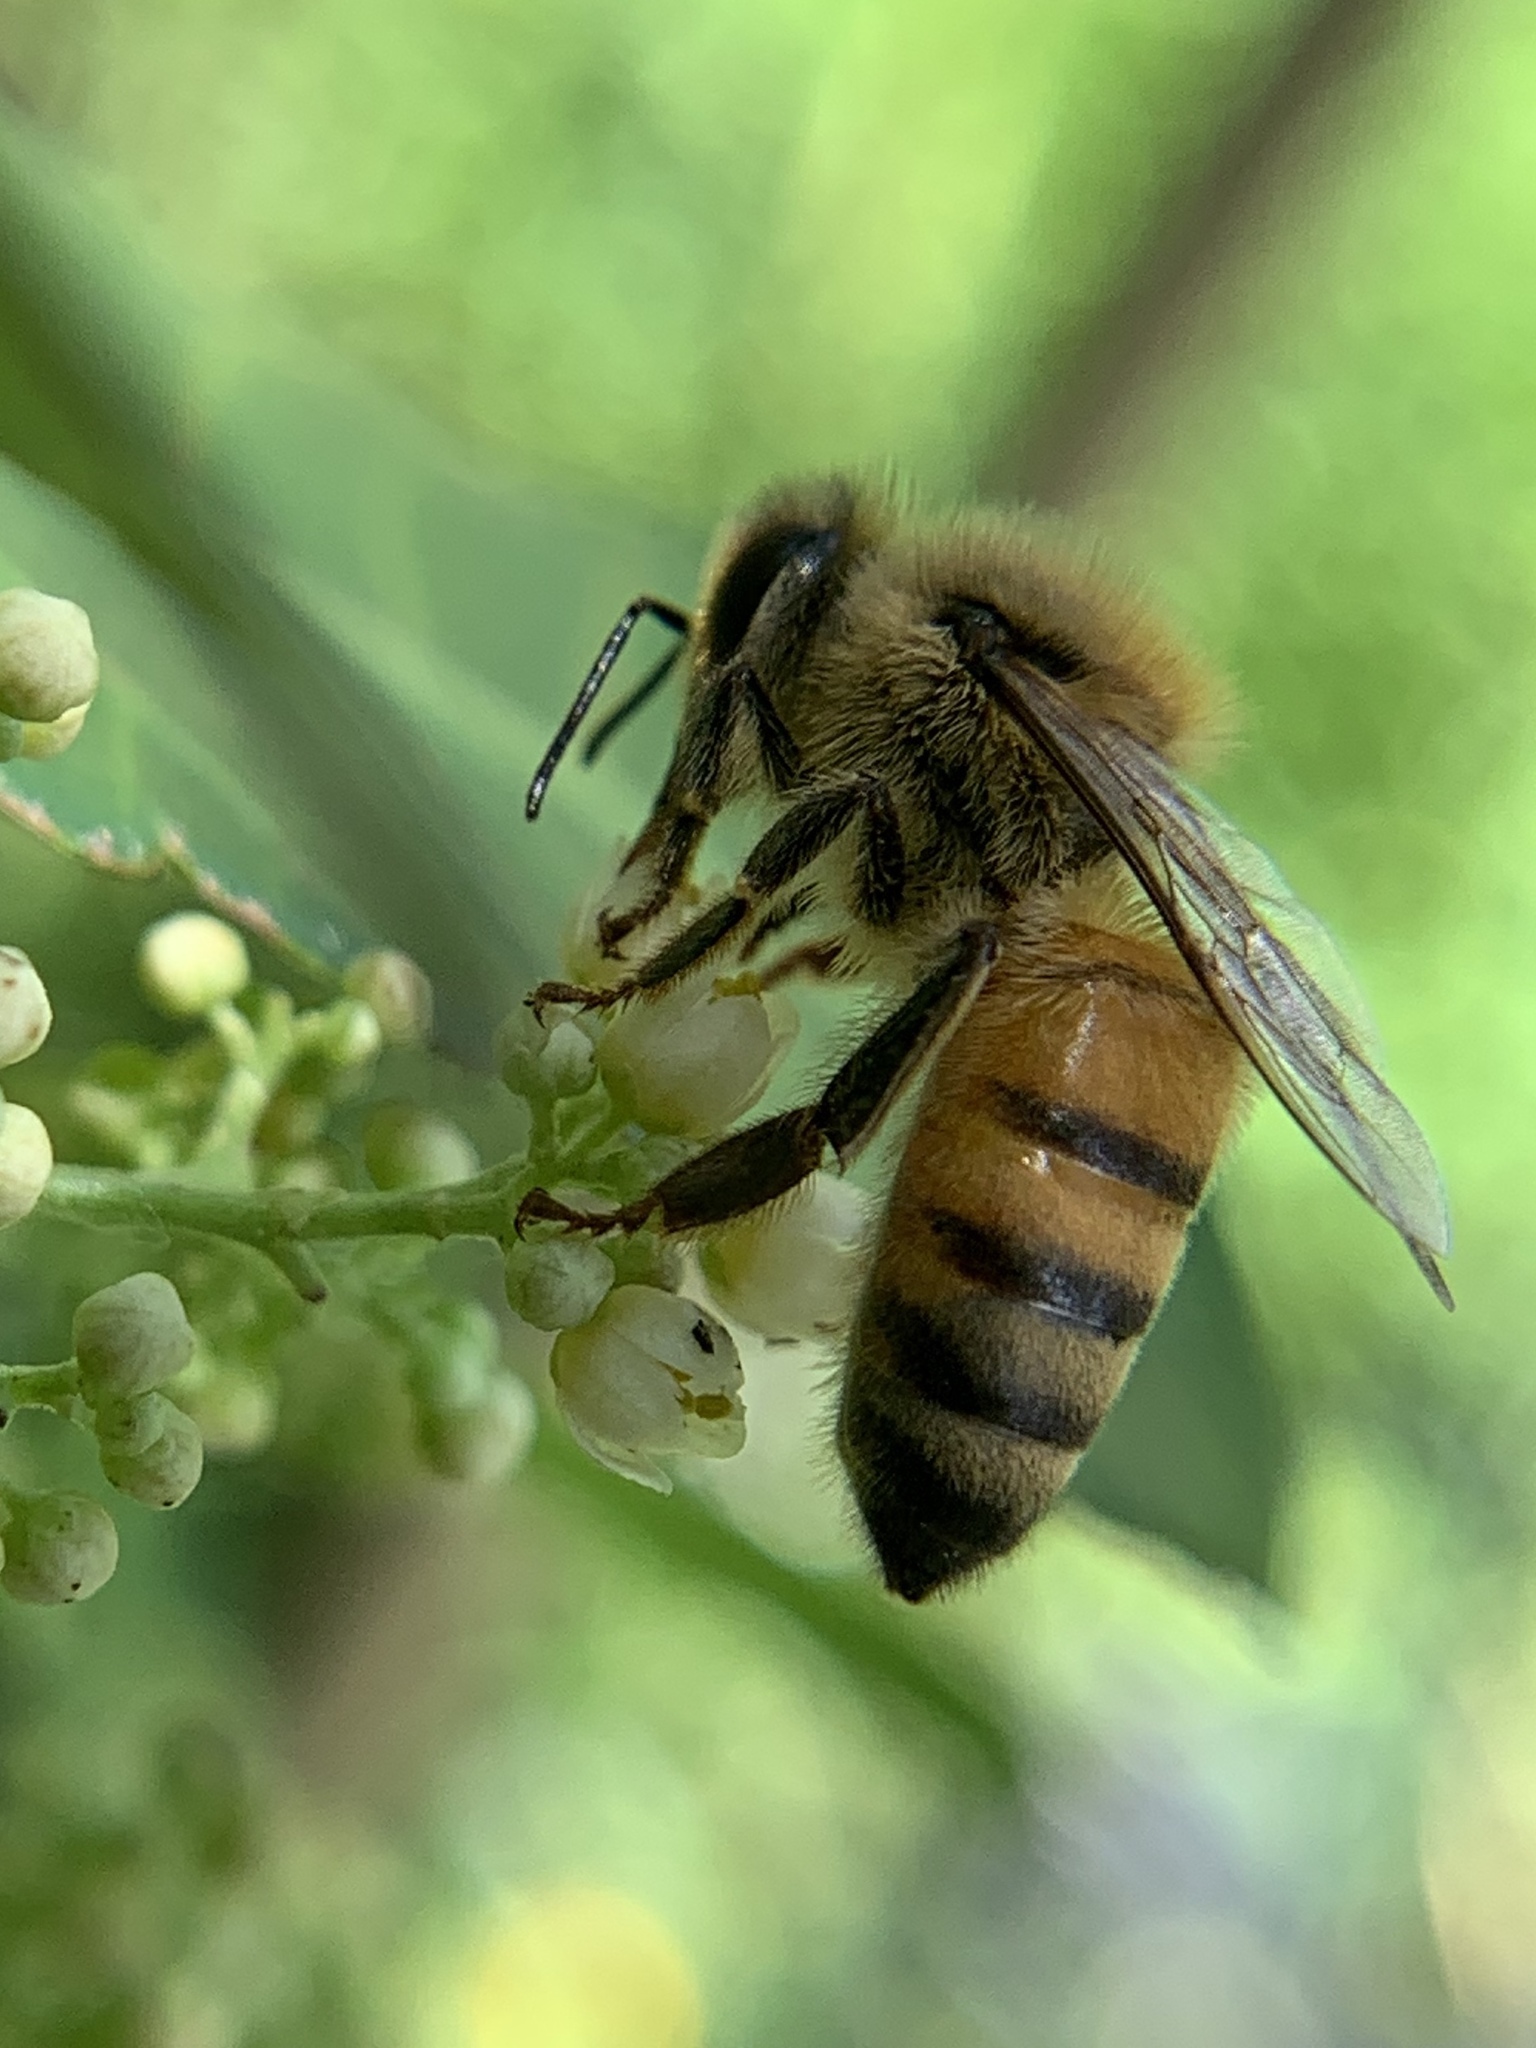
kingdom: Animalia
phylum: Arthropoda
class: Insecta
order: Hymenoptera
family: Apidae
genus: Apis
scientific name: Apis mellifera
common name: Honey bee
